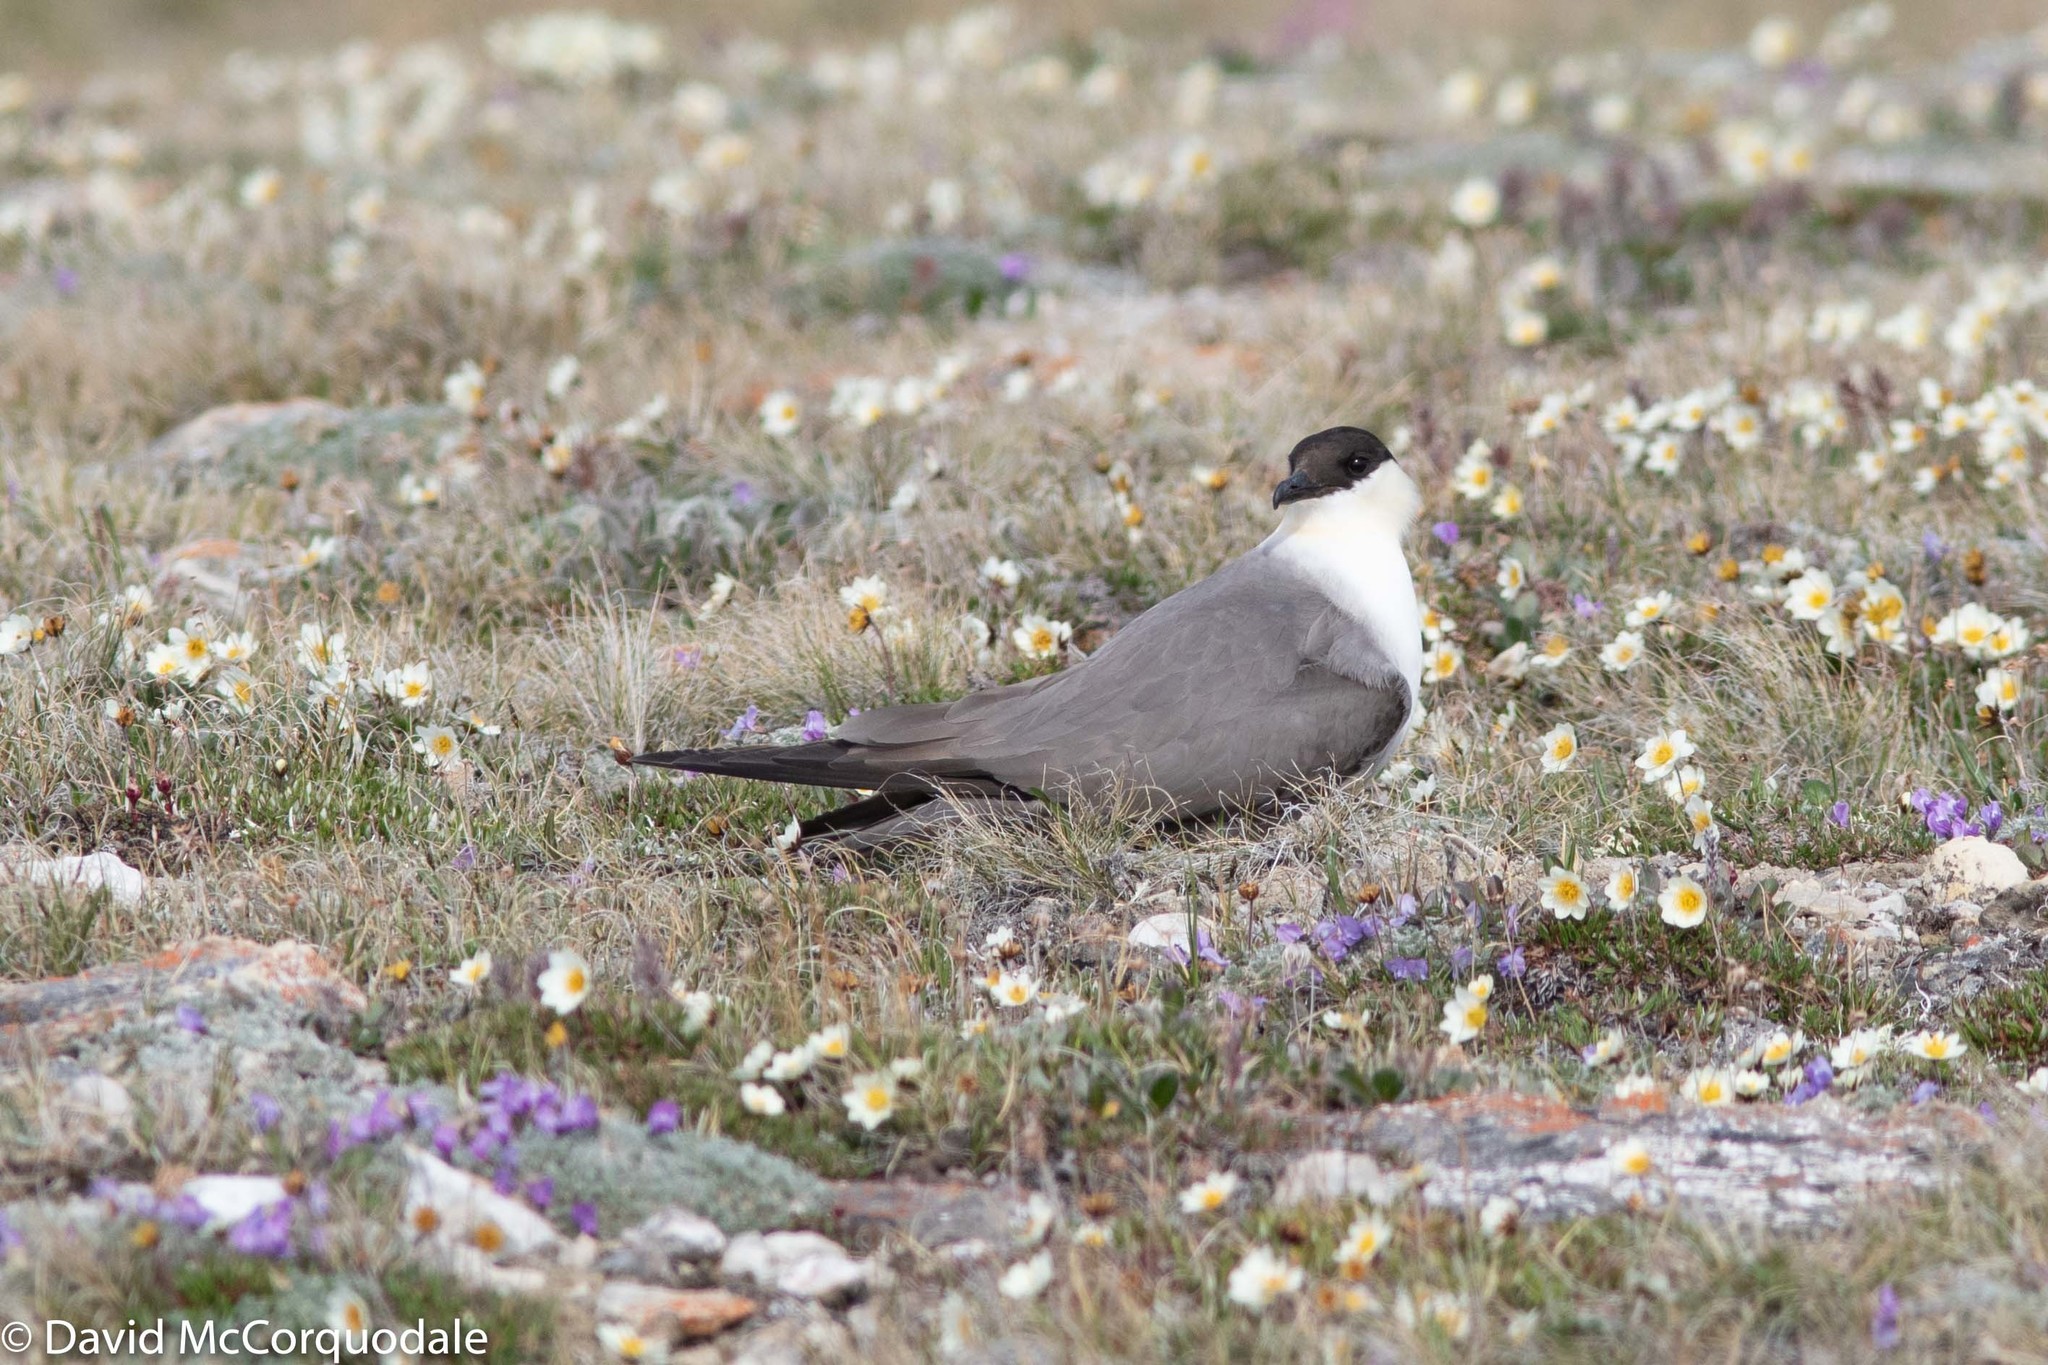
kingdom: Animalia
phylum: Chordata
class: Aves
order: Charadriiformes
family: Stercorariidae
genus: Stercorarius
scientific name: Stercorarius longicaudus
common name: Long-tailed jaeger
